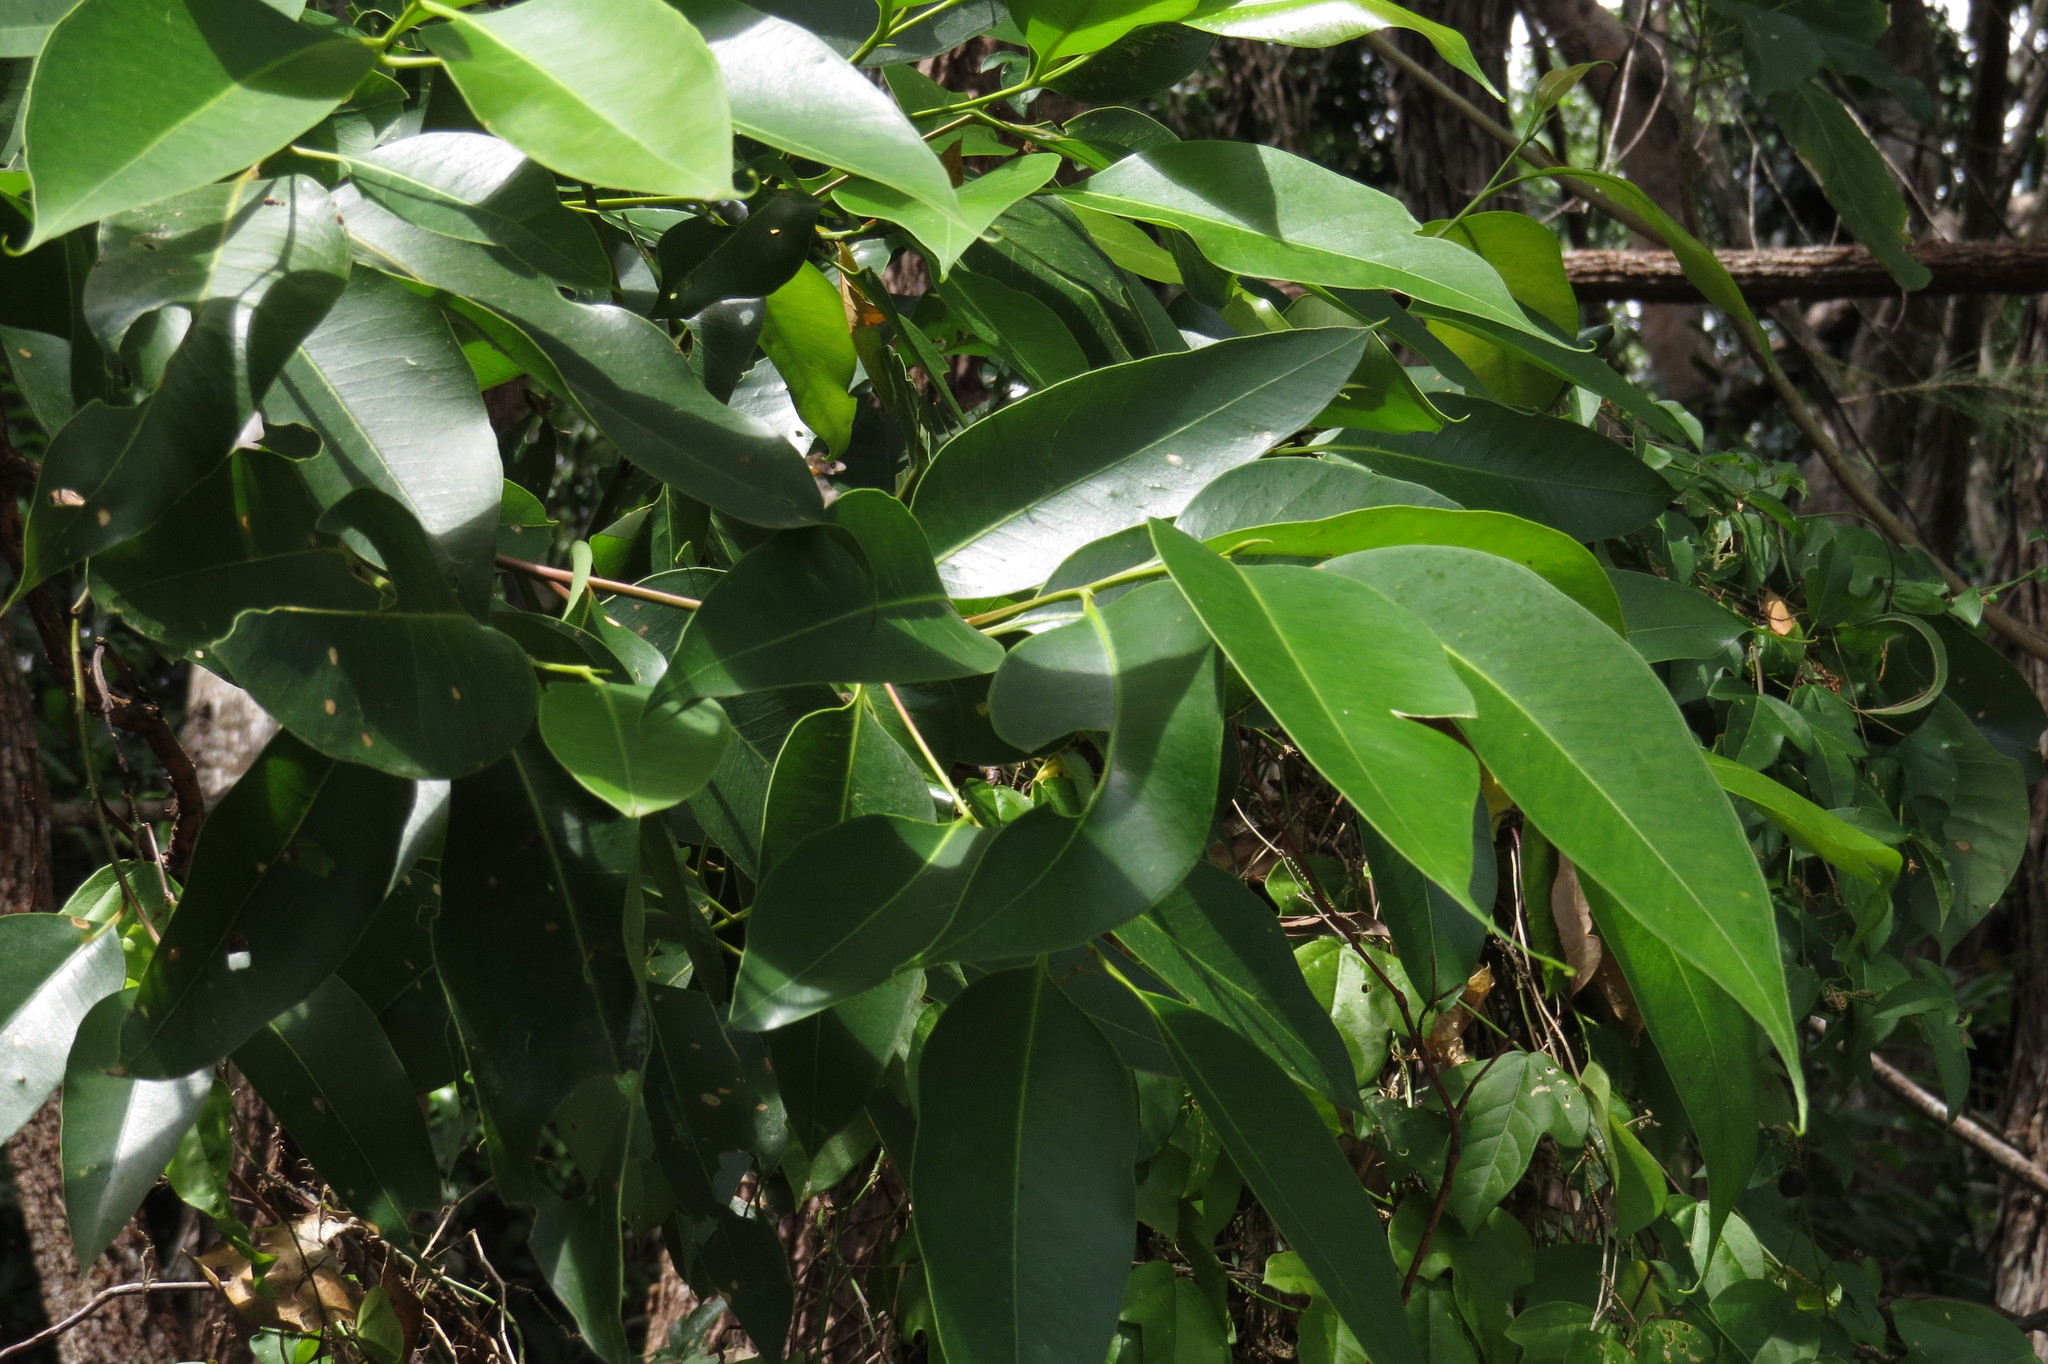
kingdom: Plantae
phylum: Tracheophyta
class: Magnoliopsida
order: Myrtales
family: Myrtaceae
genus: Eucalyptus
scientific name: Eucalyptus pellita
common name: Large-fruited-red-mahogany
